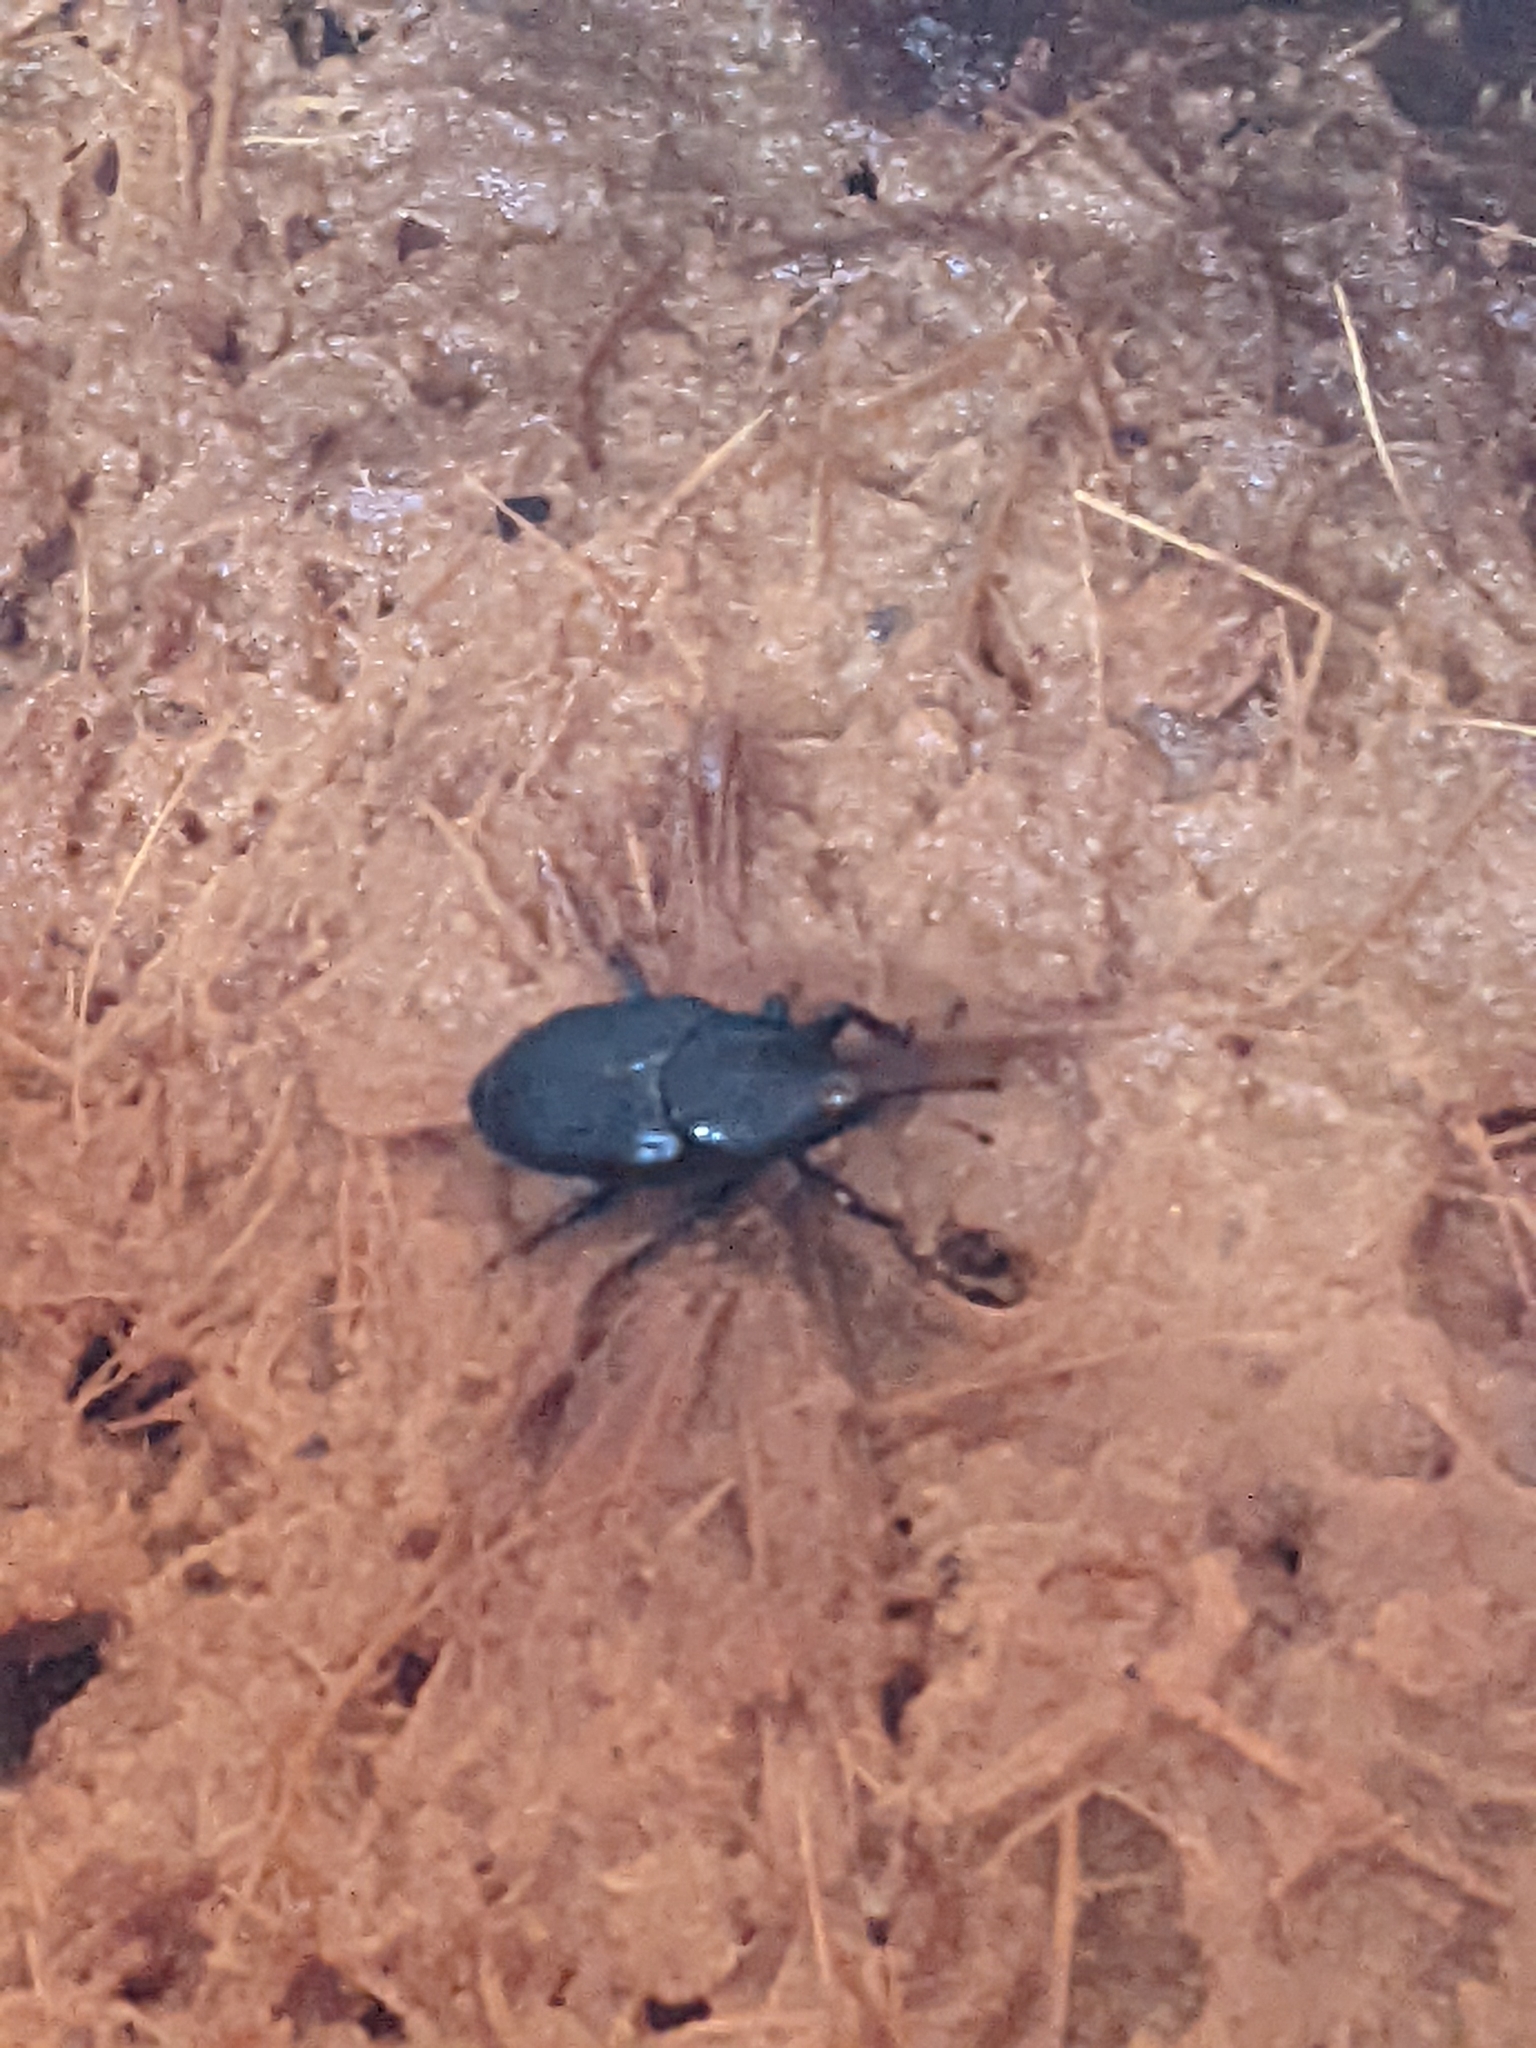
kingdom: Animalia
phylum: Arthropoda
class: Insecta
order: Coleoptera
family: Dryophthoridae
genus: Rhynchophorus
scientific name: Rhynchophorus palmarum
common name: Palm weevil
